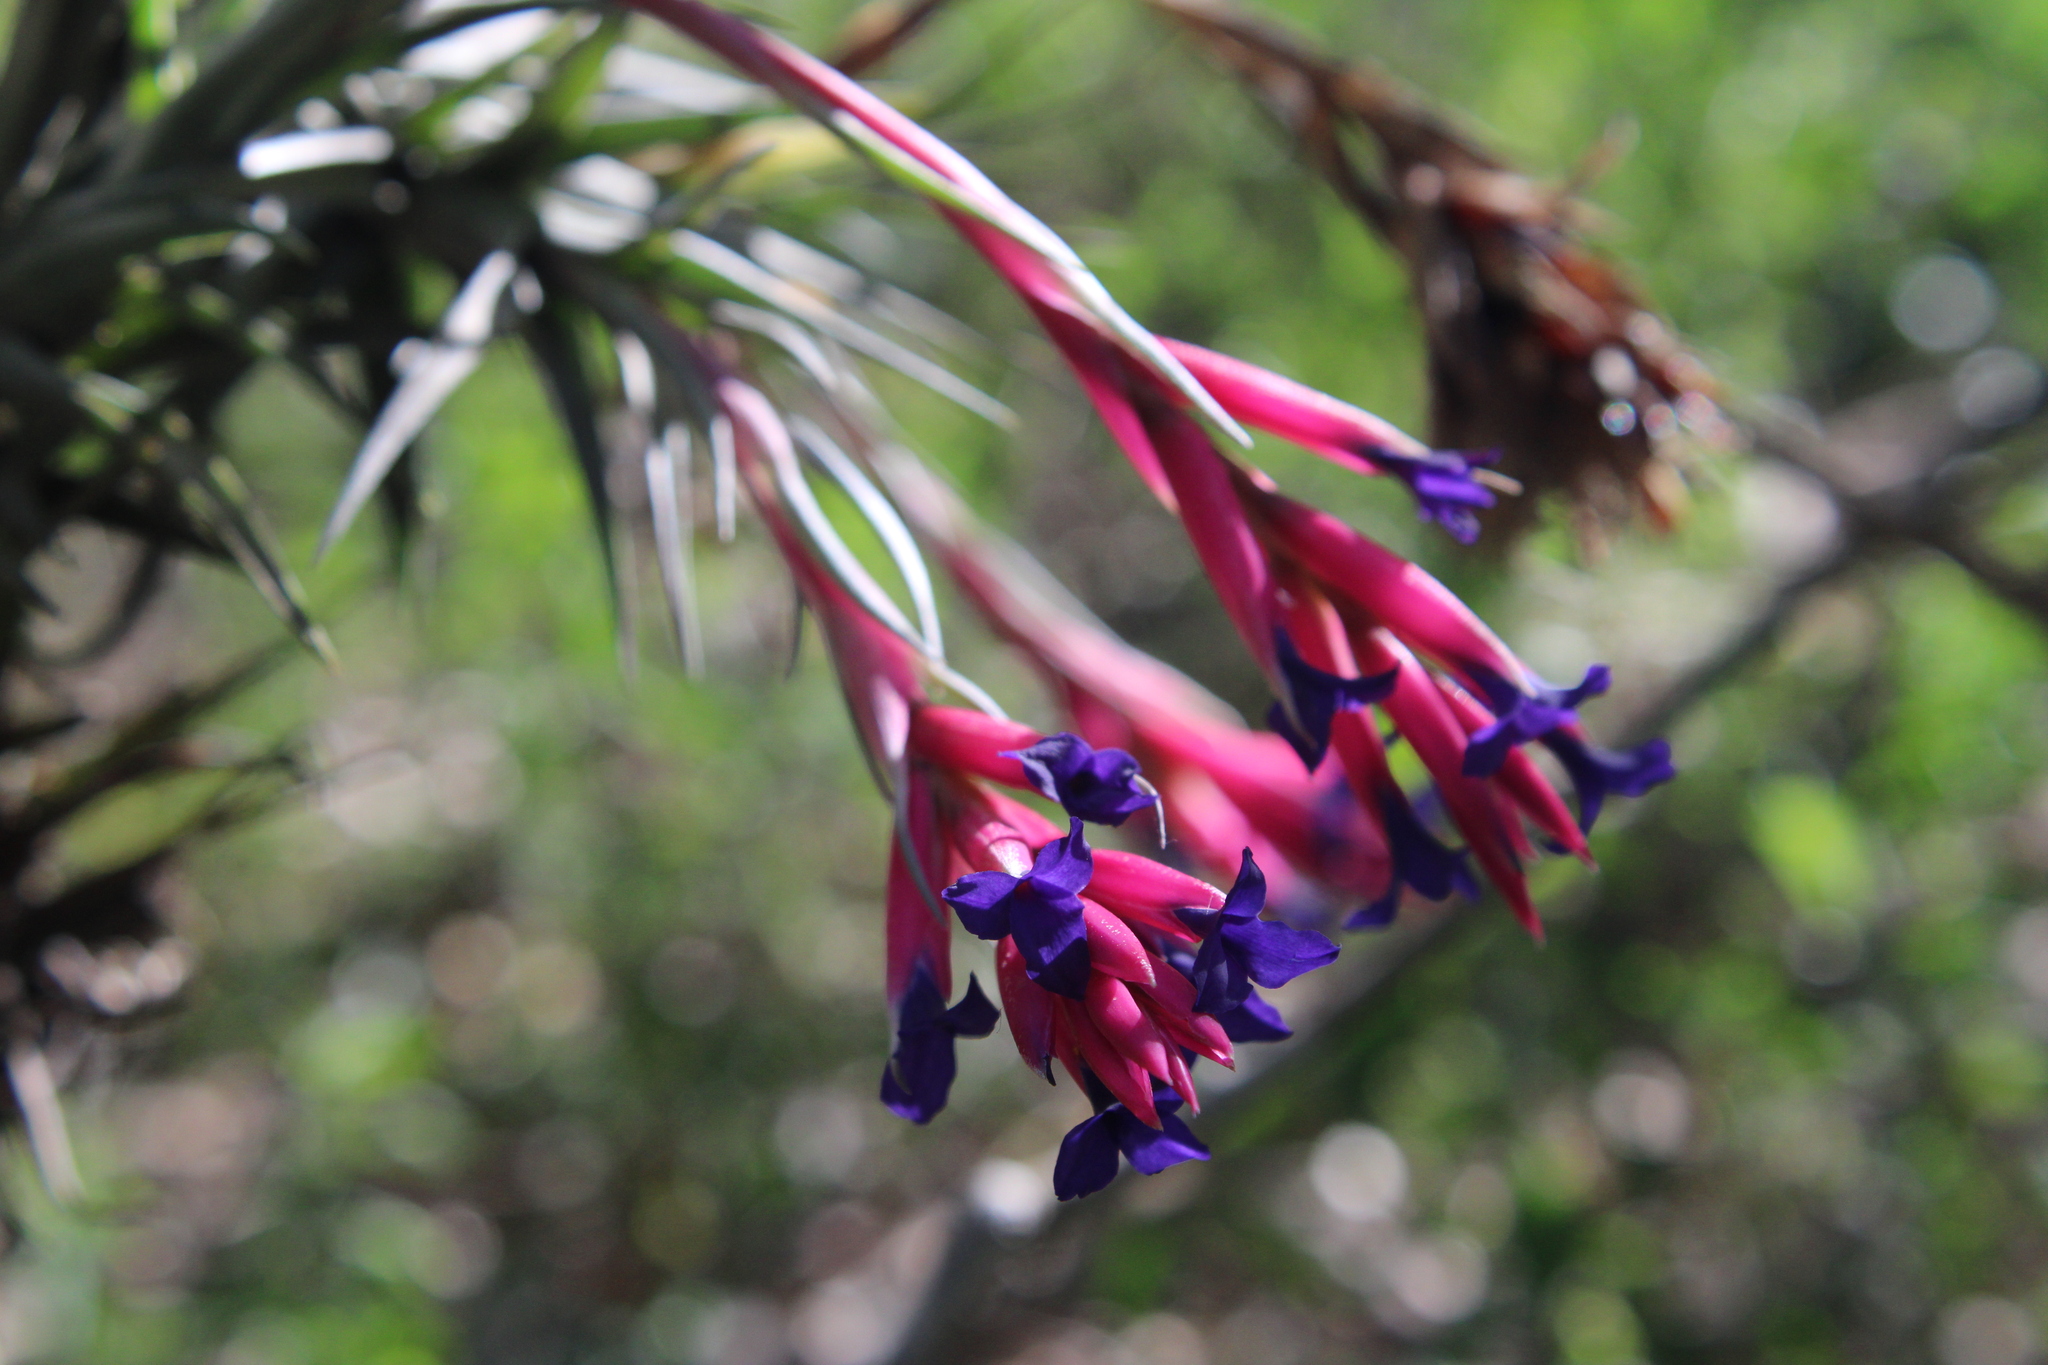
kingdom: Plantae
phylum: Tracheophyta
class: Liliopsida
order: Poales
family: Bromeliaceae
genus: Tillandsia
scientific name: Tillandsia aeranthos
